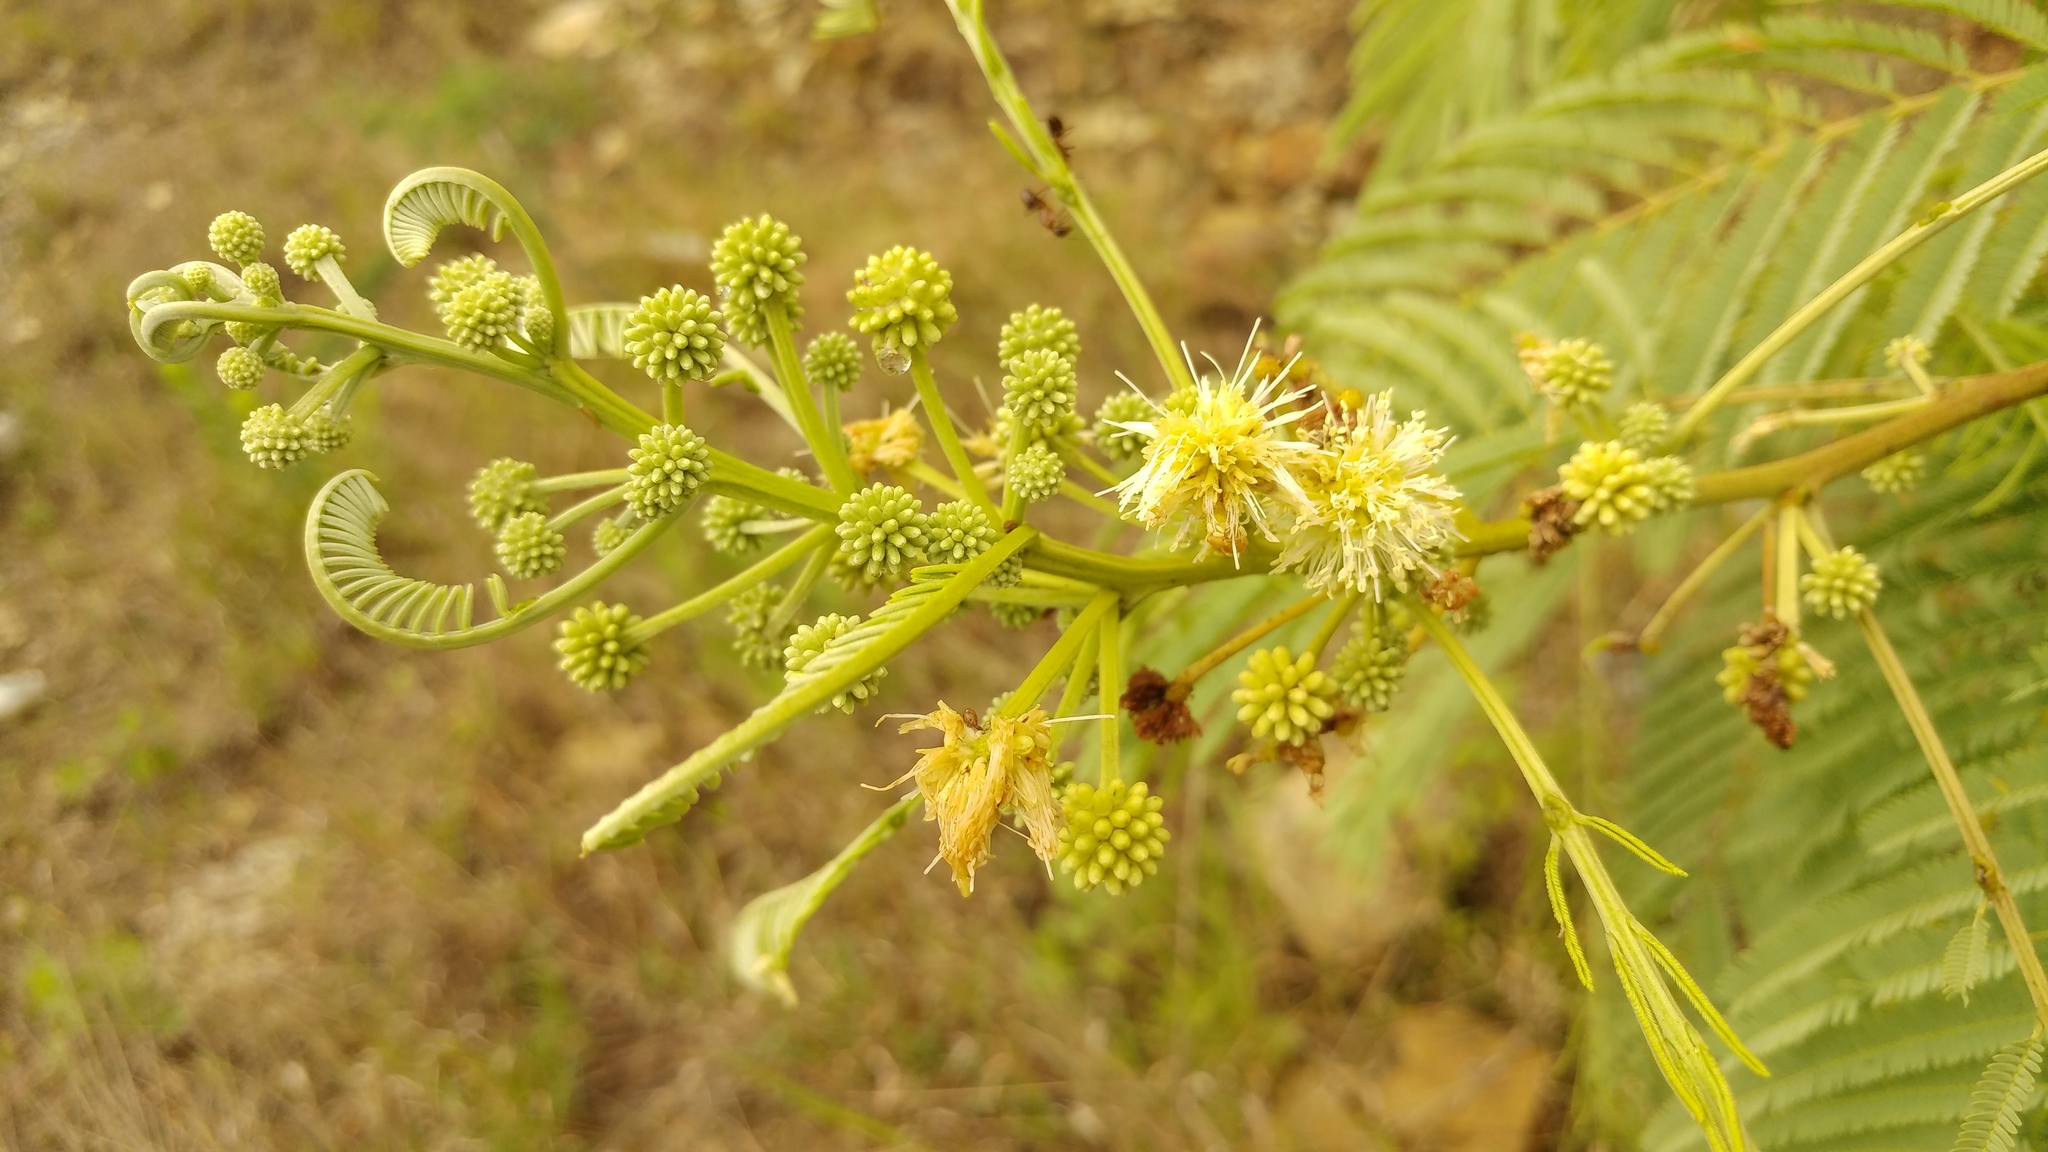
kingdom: Plantae
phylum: Tracheophyta
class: Magnoliopsida
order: Fabales
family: Fabaceae
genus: Leucaena
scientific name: Leucaena leucocephala
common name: White leadtree
